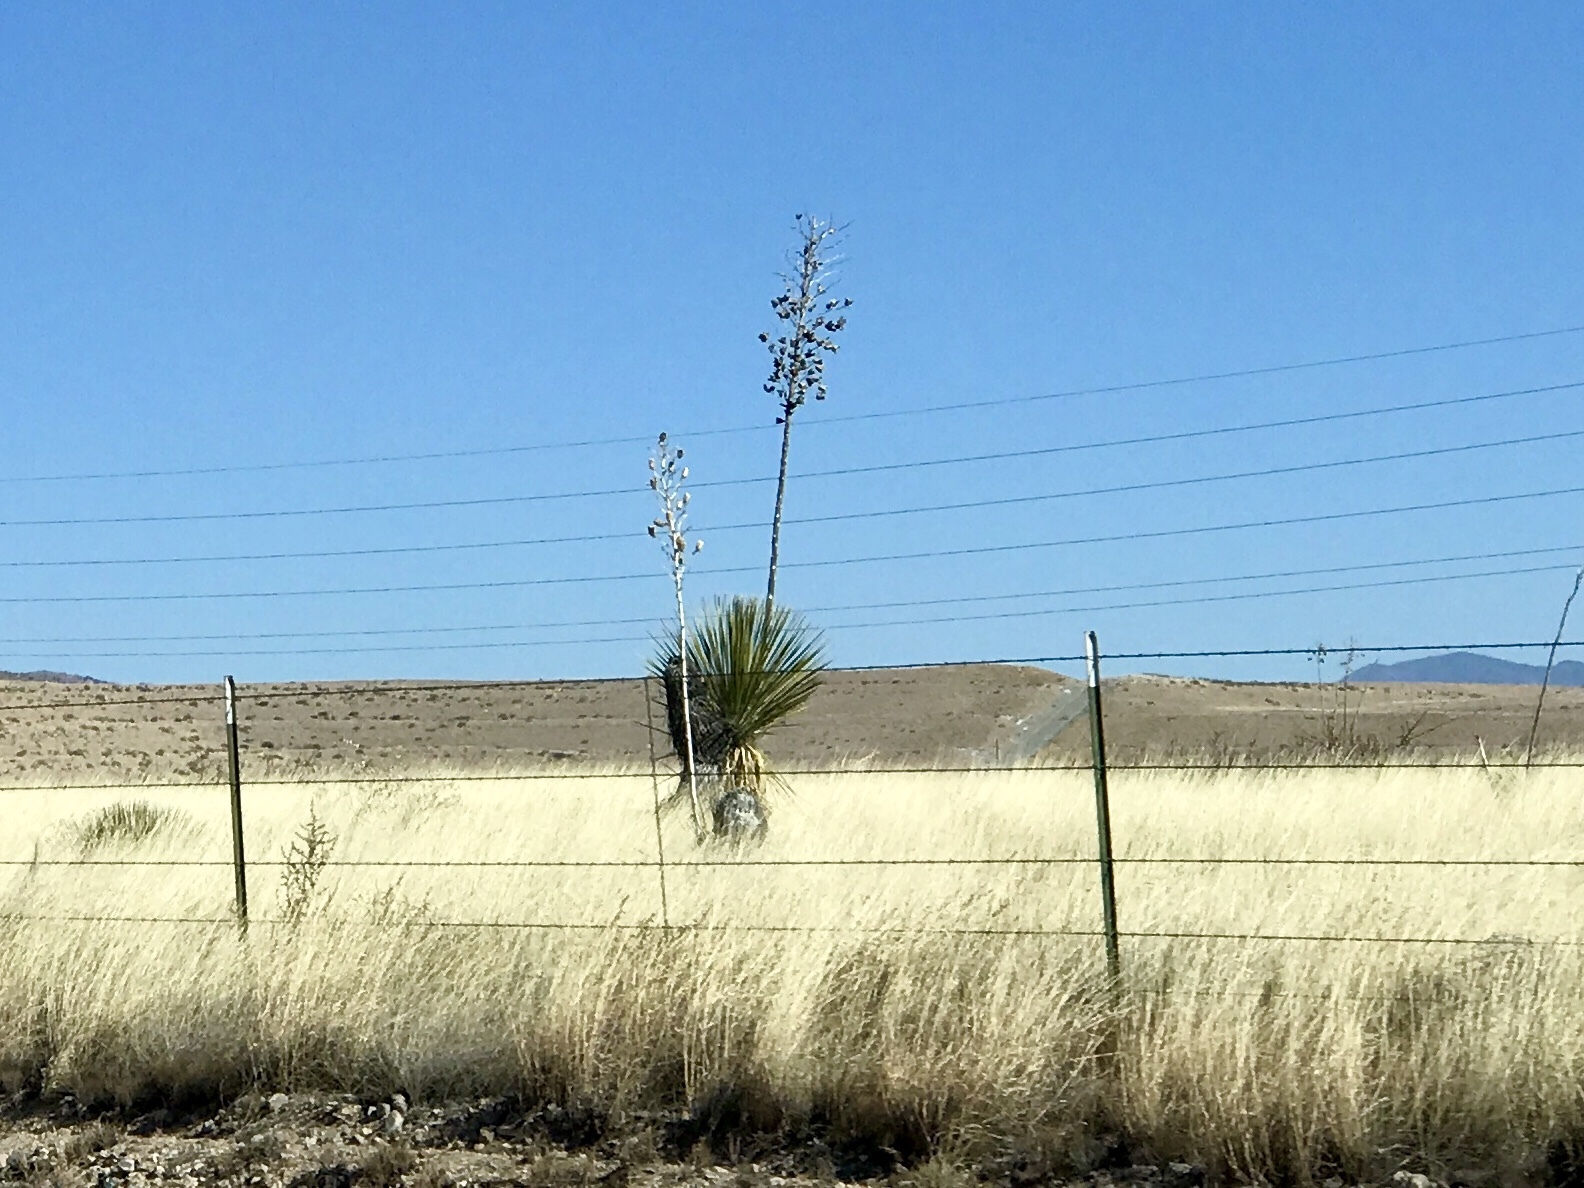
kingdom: Plantae
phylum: Tracheophyta
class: Liliopsida
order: Asparagales
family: Asparagaceae
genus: Yucca
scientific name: Yucca elata
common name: Palmella
